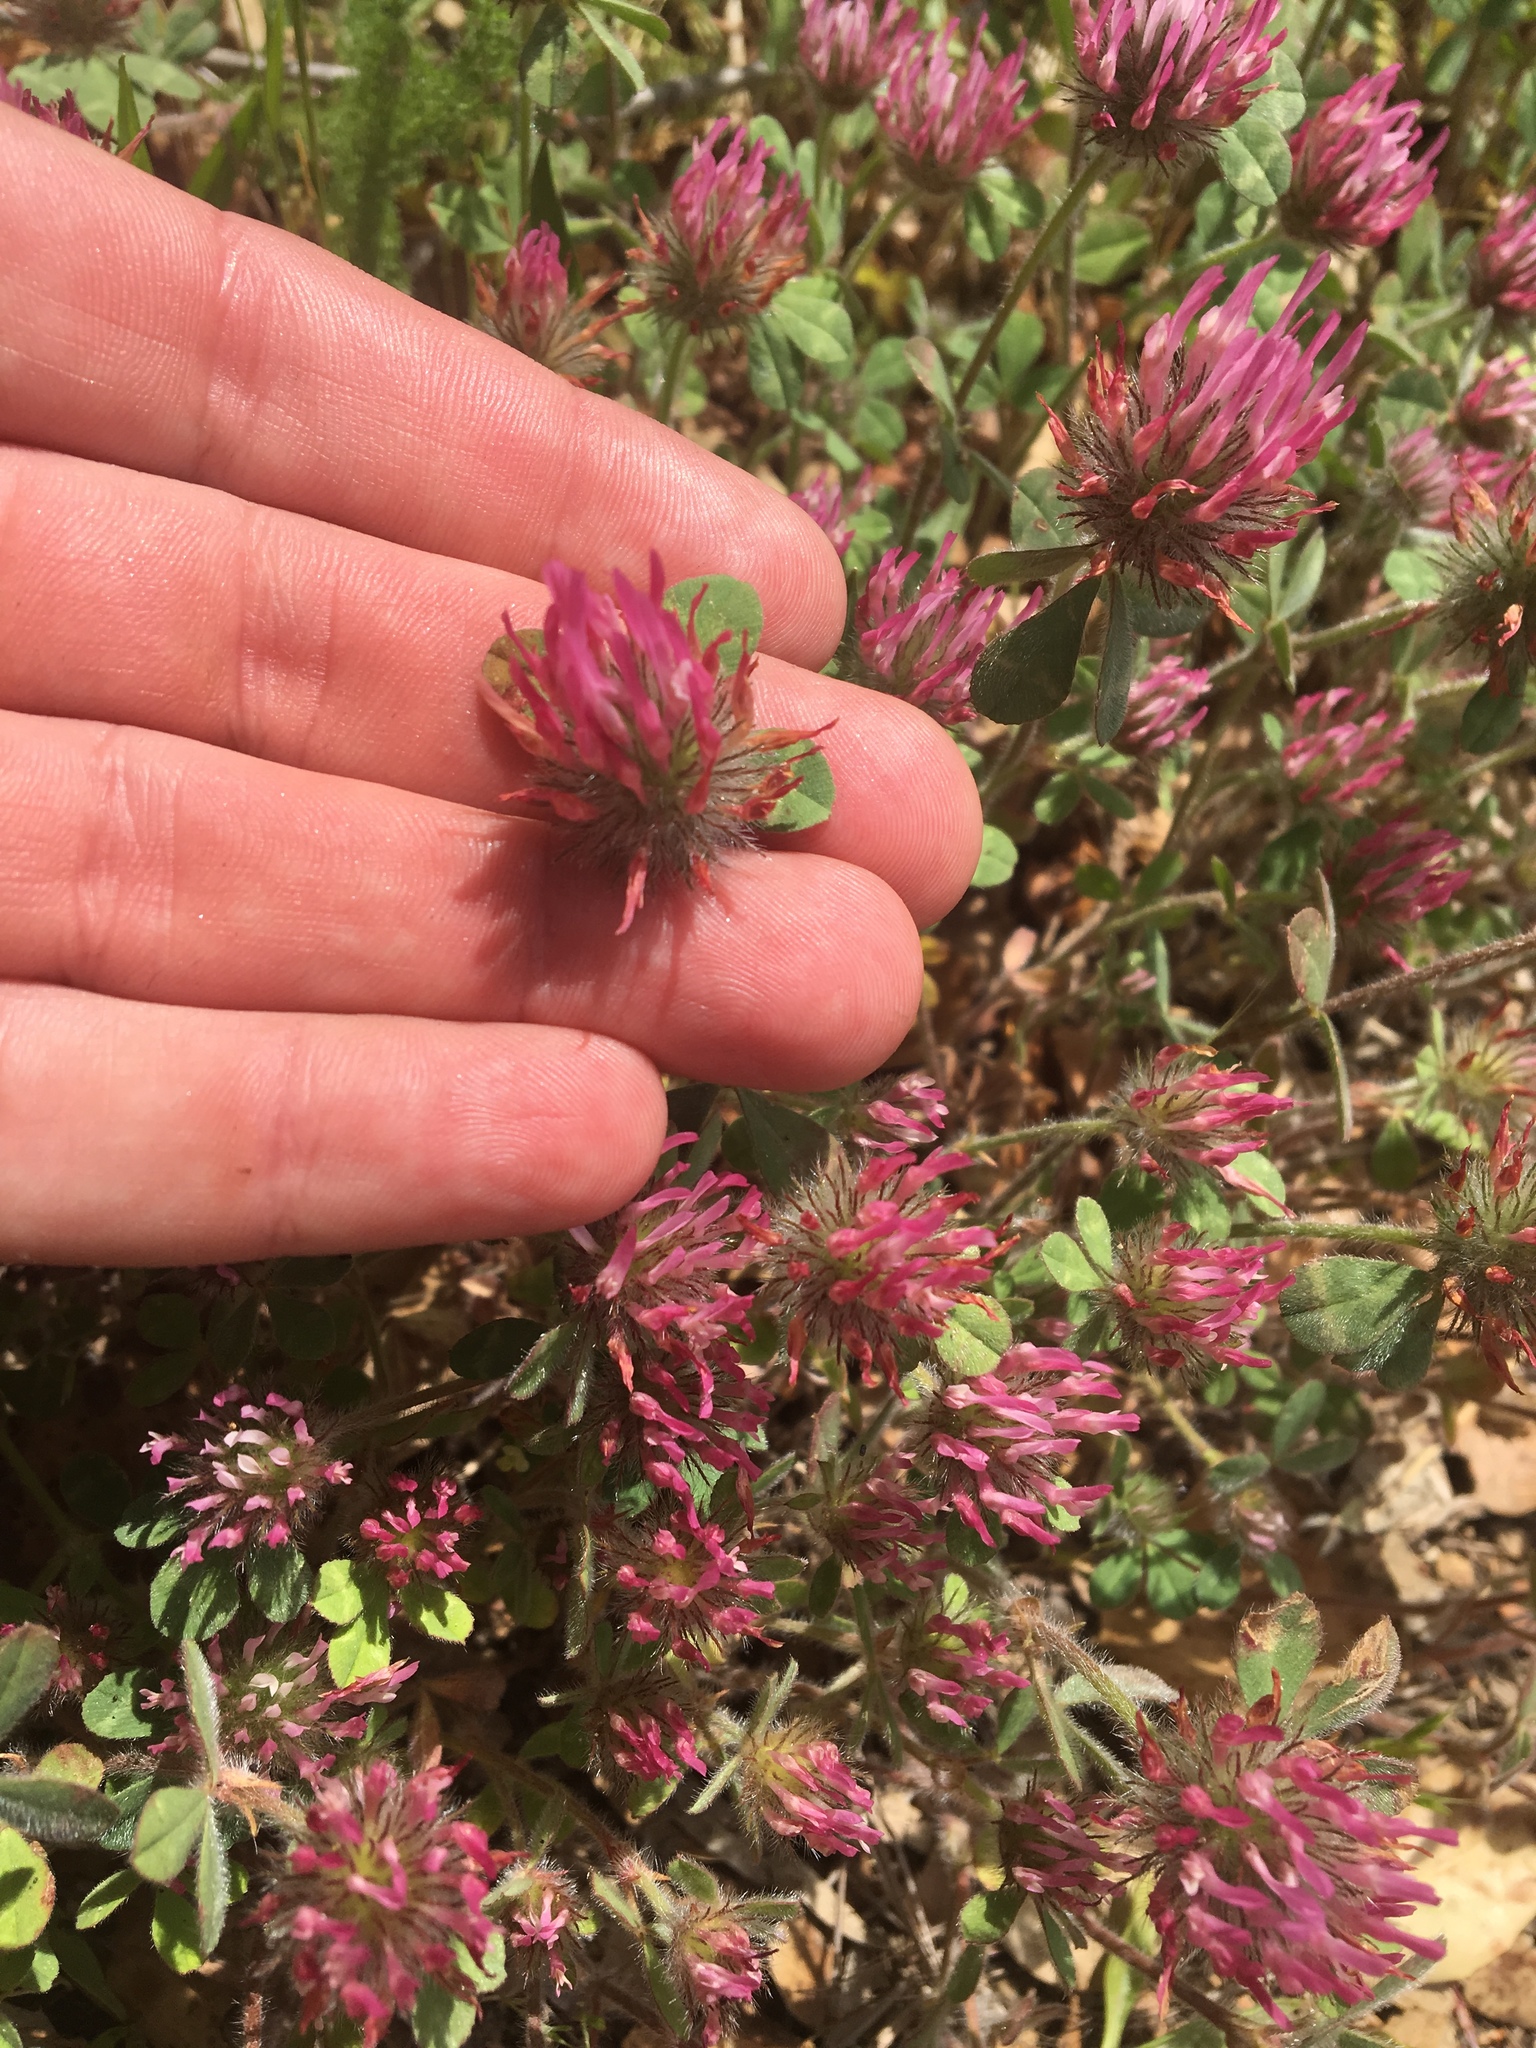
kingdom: Plantae
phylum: Tracheophyta
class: Magnoliopsida
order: Fabales
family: Fabaceae
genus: Trifolium
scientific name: Trifolium hirtum
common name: Rose clover
